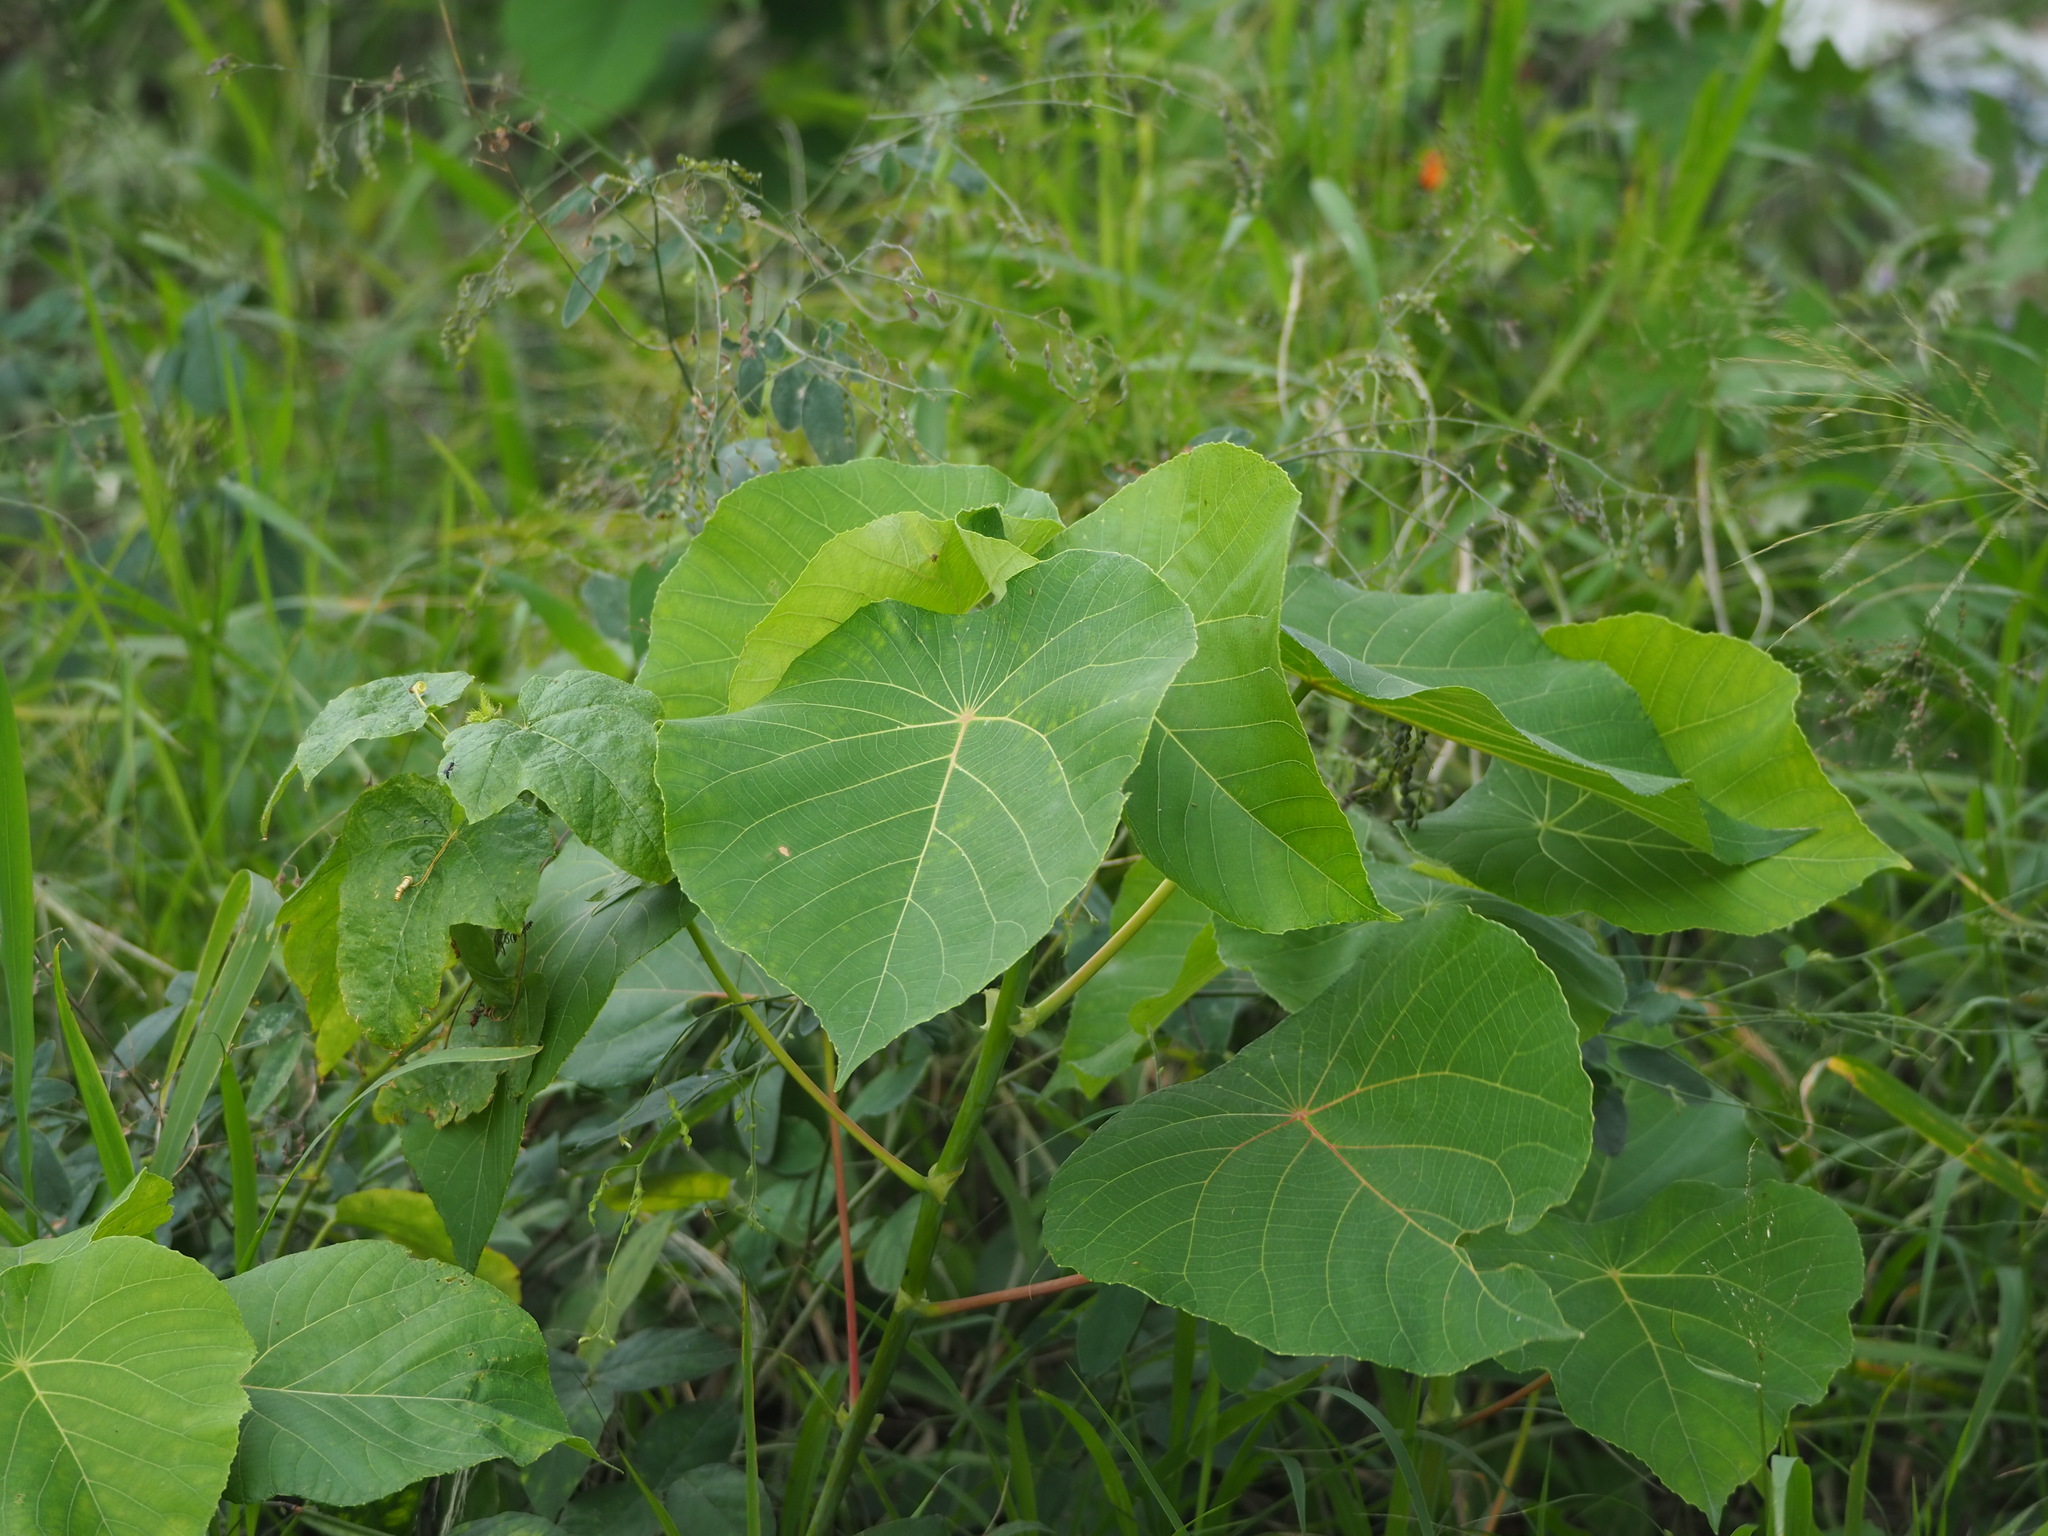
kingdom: Plantae
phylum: Tracheophyta
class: Magnoliopsida
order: Malpighiales
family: Euphorbiaceae
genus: Macaranga
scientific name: Macaranga tanarius
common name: Parasol leaf tree
